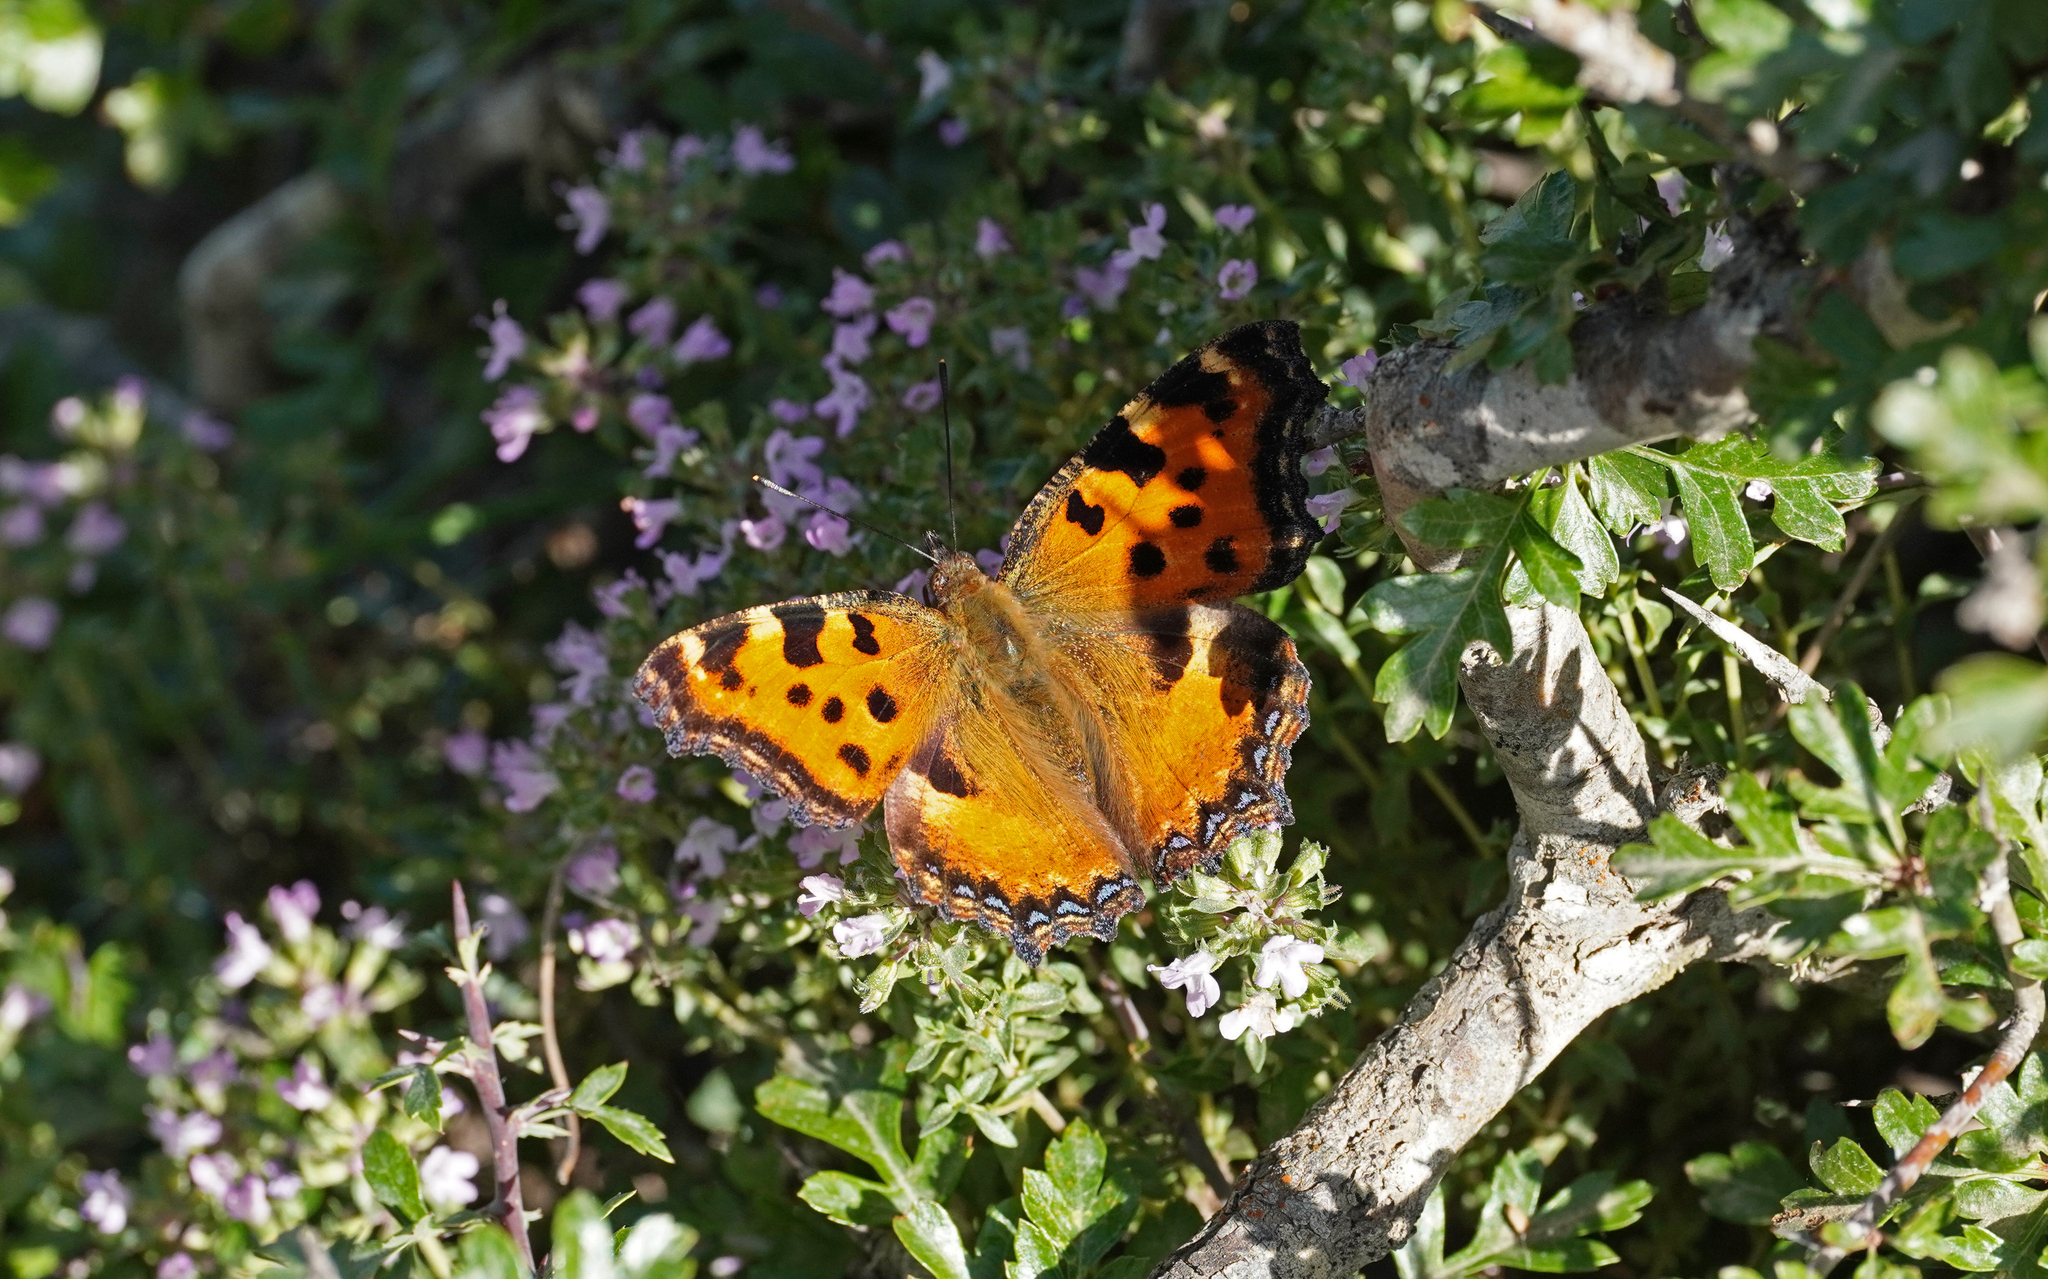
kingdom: Animalia
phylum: Arthropoda
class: Insecta
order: Lepidoptera
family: Nymphalidae
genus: Nymphalis
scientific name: Nymphalis polychloros
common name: Large tortoiseshell
